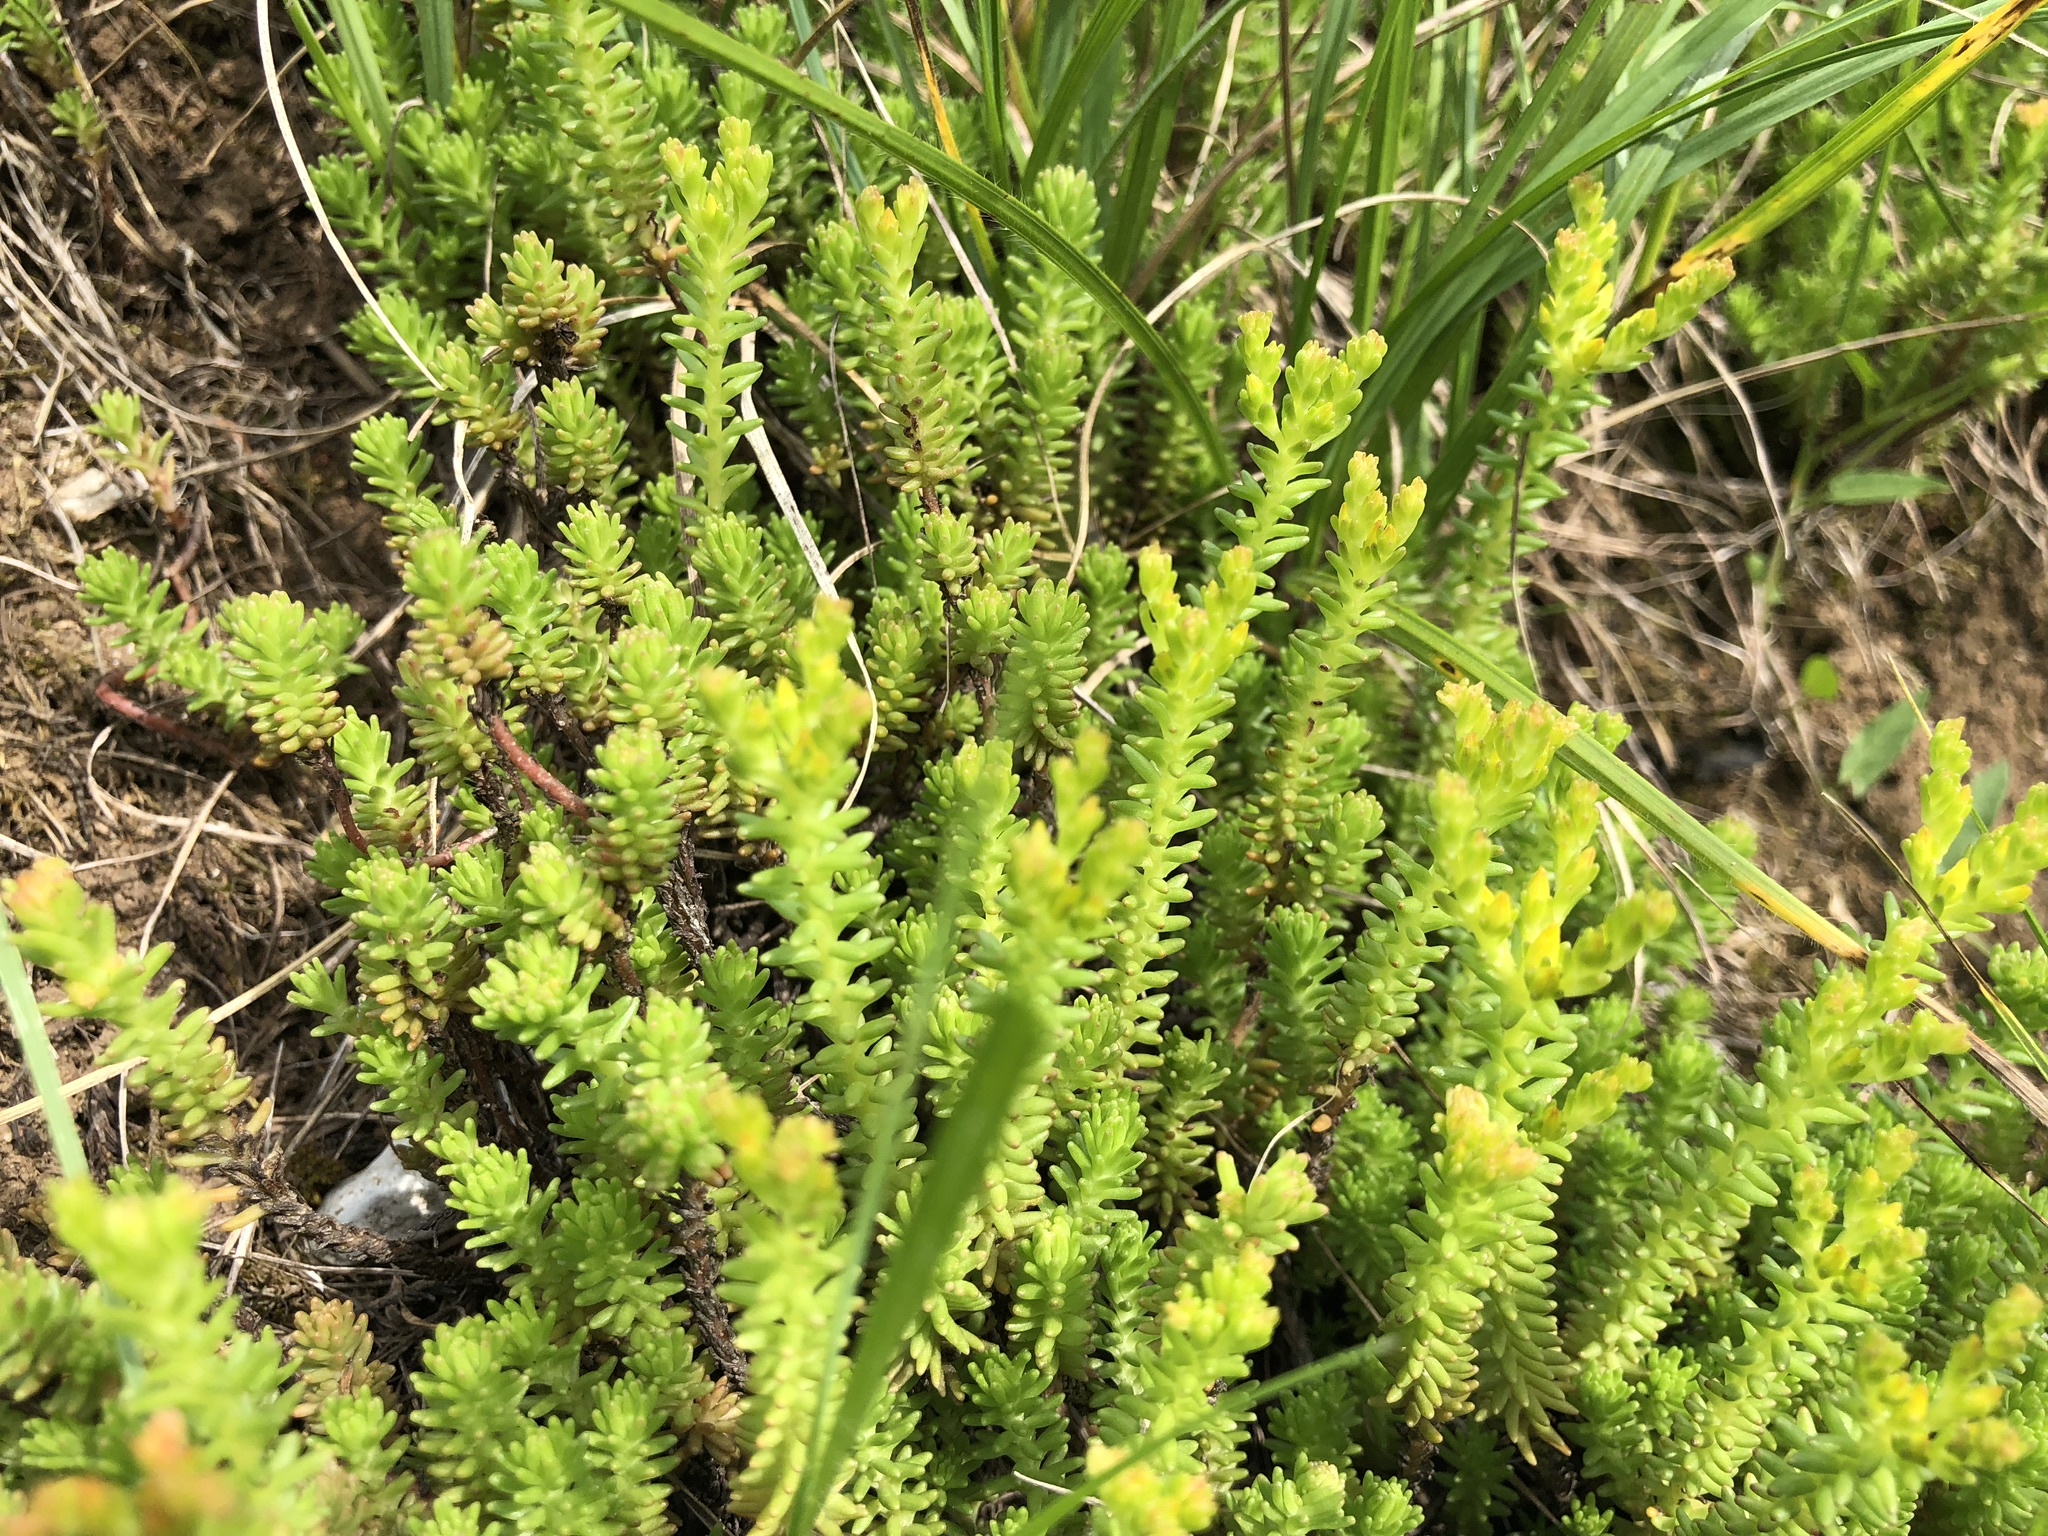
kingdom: Plantae
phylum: Tracheophyta
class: Magnoliopsida
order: Saxifragales
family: Crassulaceae
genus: Sedum
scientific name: Sedum sexangulare
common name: Tasteless stonecrop
